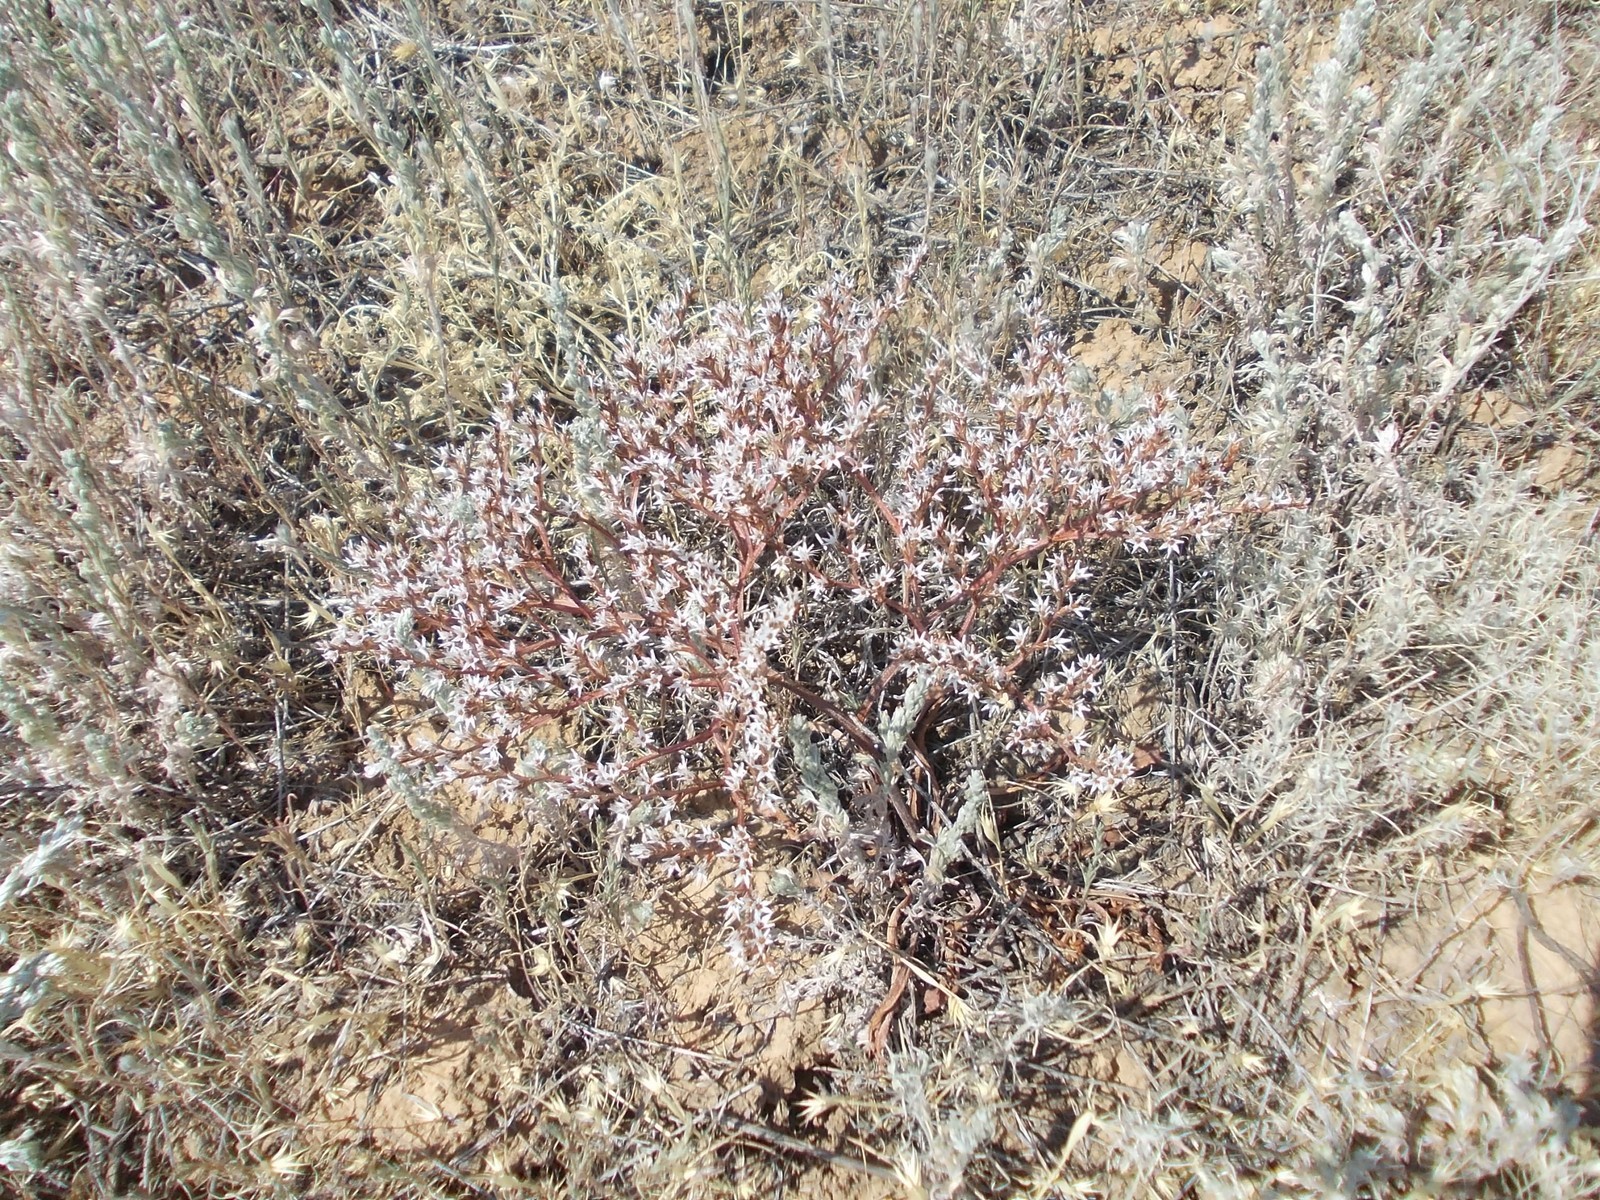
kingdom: Plantae
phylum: Tracheophyta
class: Magnoliopsida
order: Caryophyllales
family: Plumbaginaceae
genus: Goniolimon
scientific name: Goniolimon rubellum
